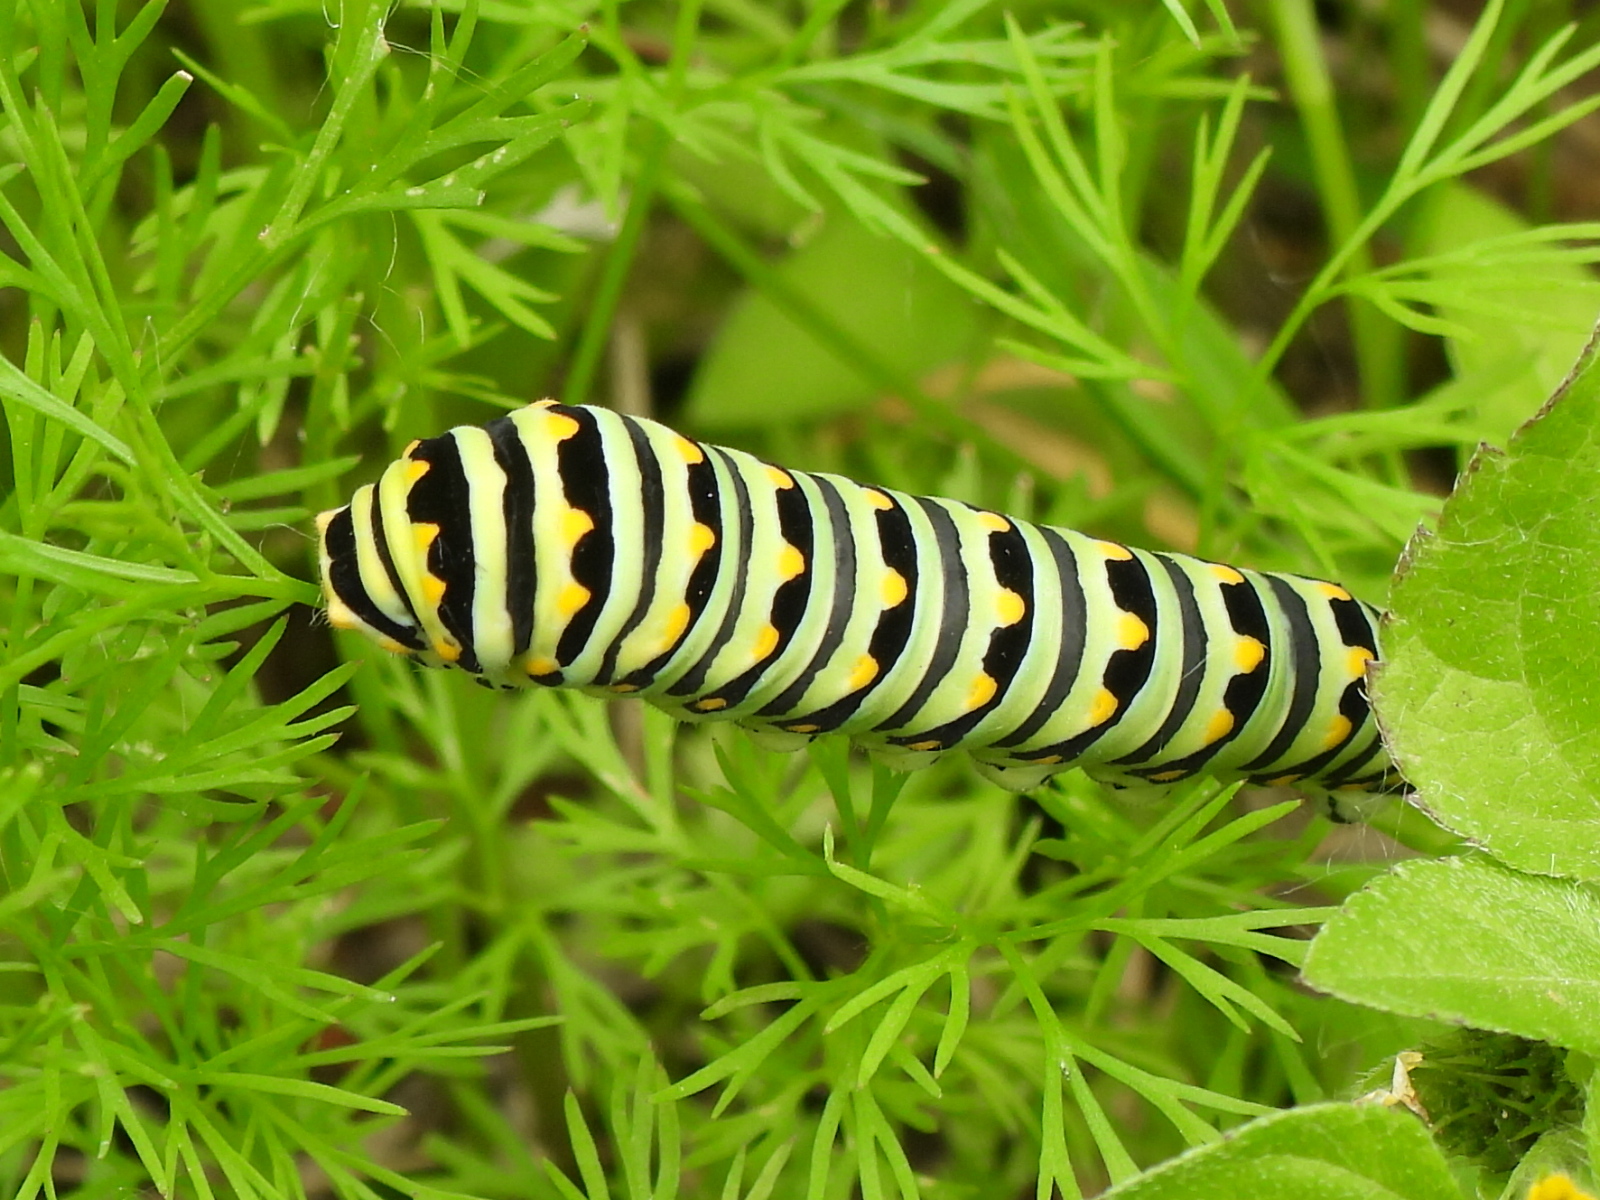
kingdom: Animalia
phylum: Arthropoda
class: Insecta
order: Lepidoptera
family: Papilionidae
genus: Papilio
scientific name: Papilio polyxenes
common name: Black swallowtail
